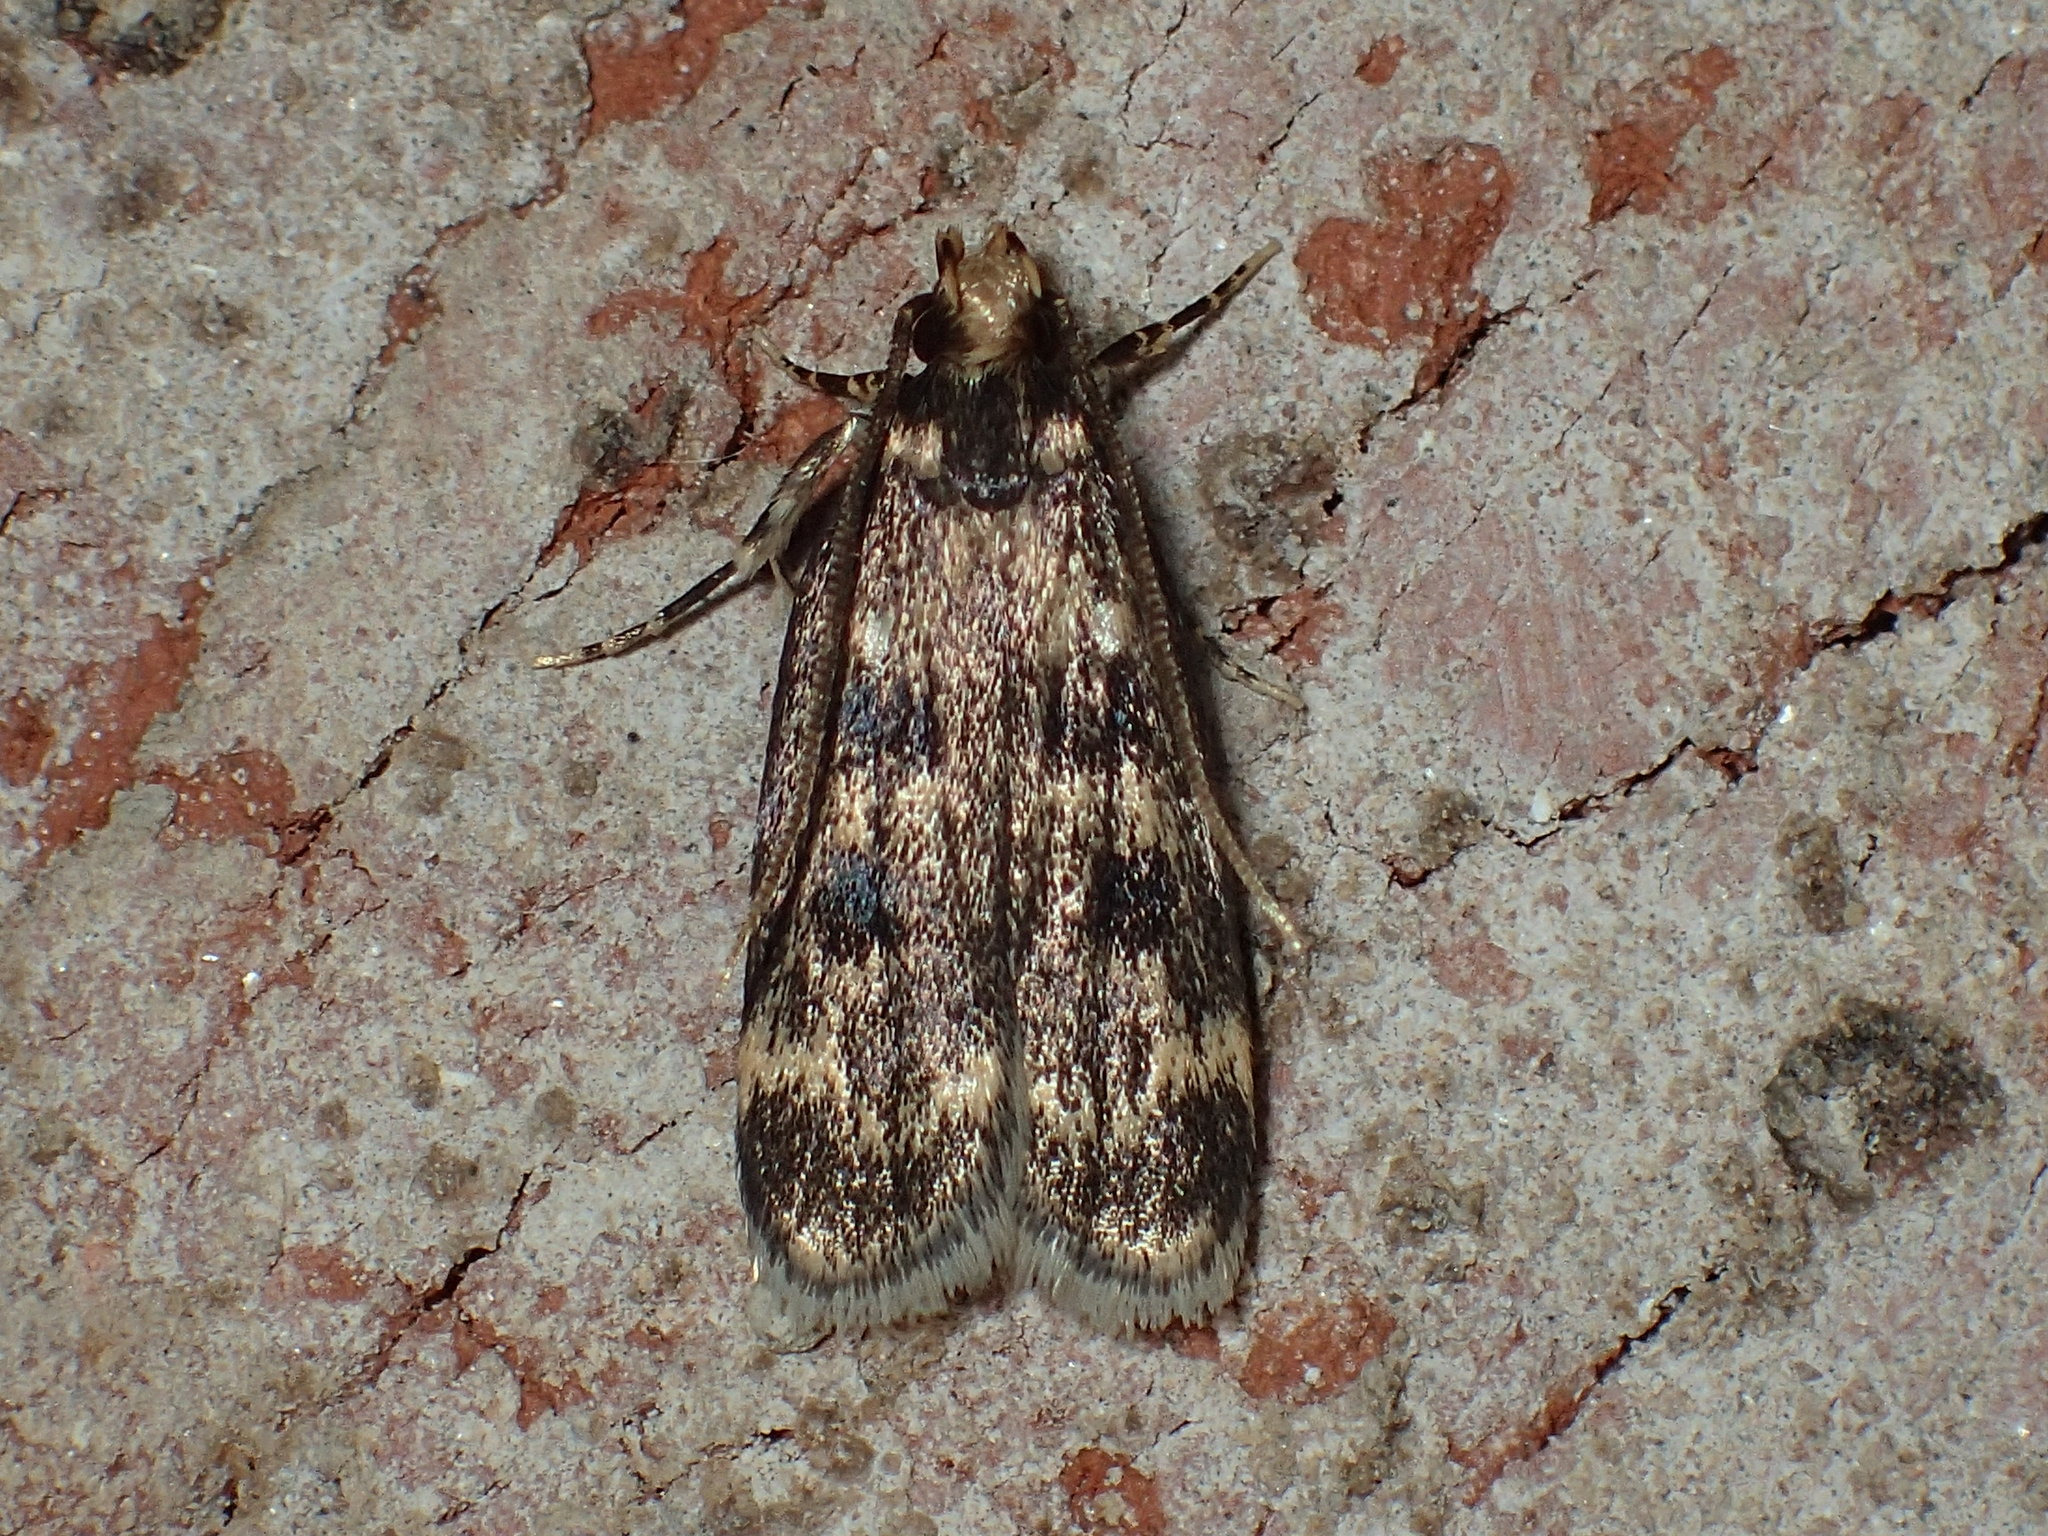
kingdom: Animalia
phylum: Arthropoda
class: Insecta
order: Lepidoptera
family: Lecithoceridae
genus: Martyringa
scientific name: Martyringa latipennis
